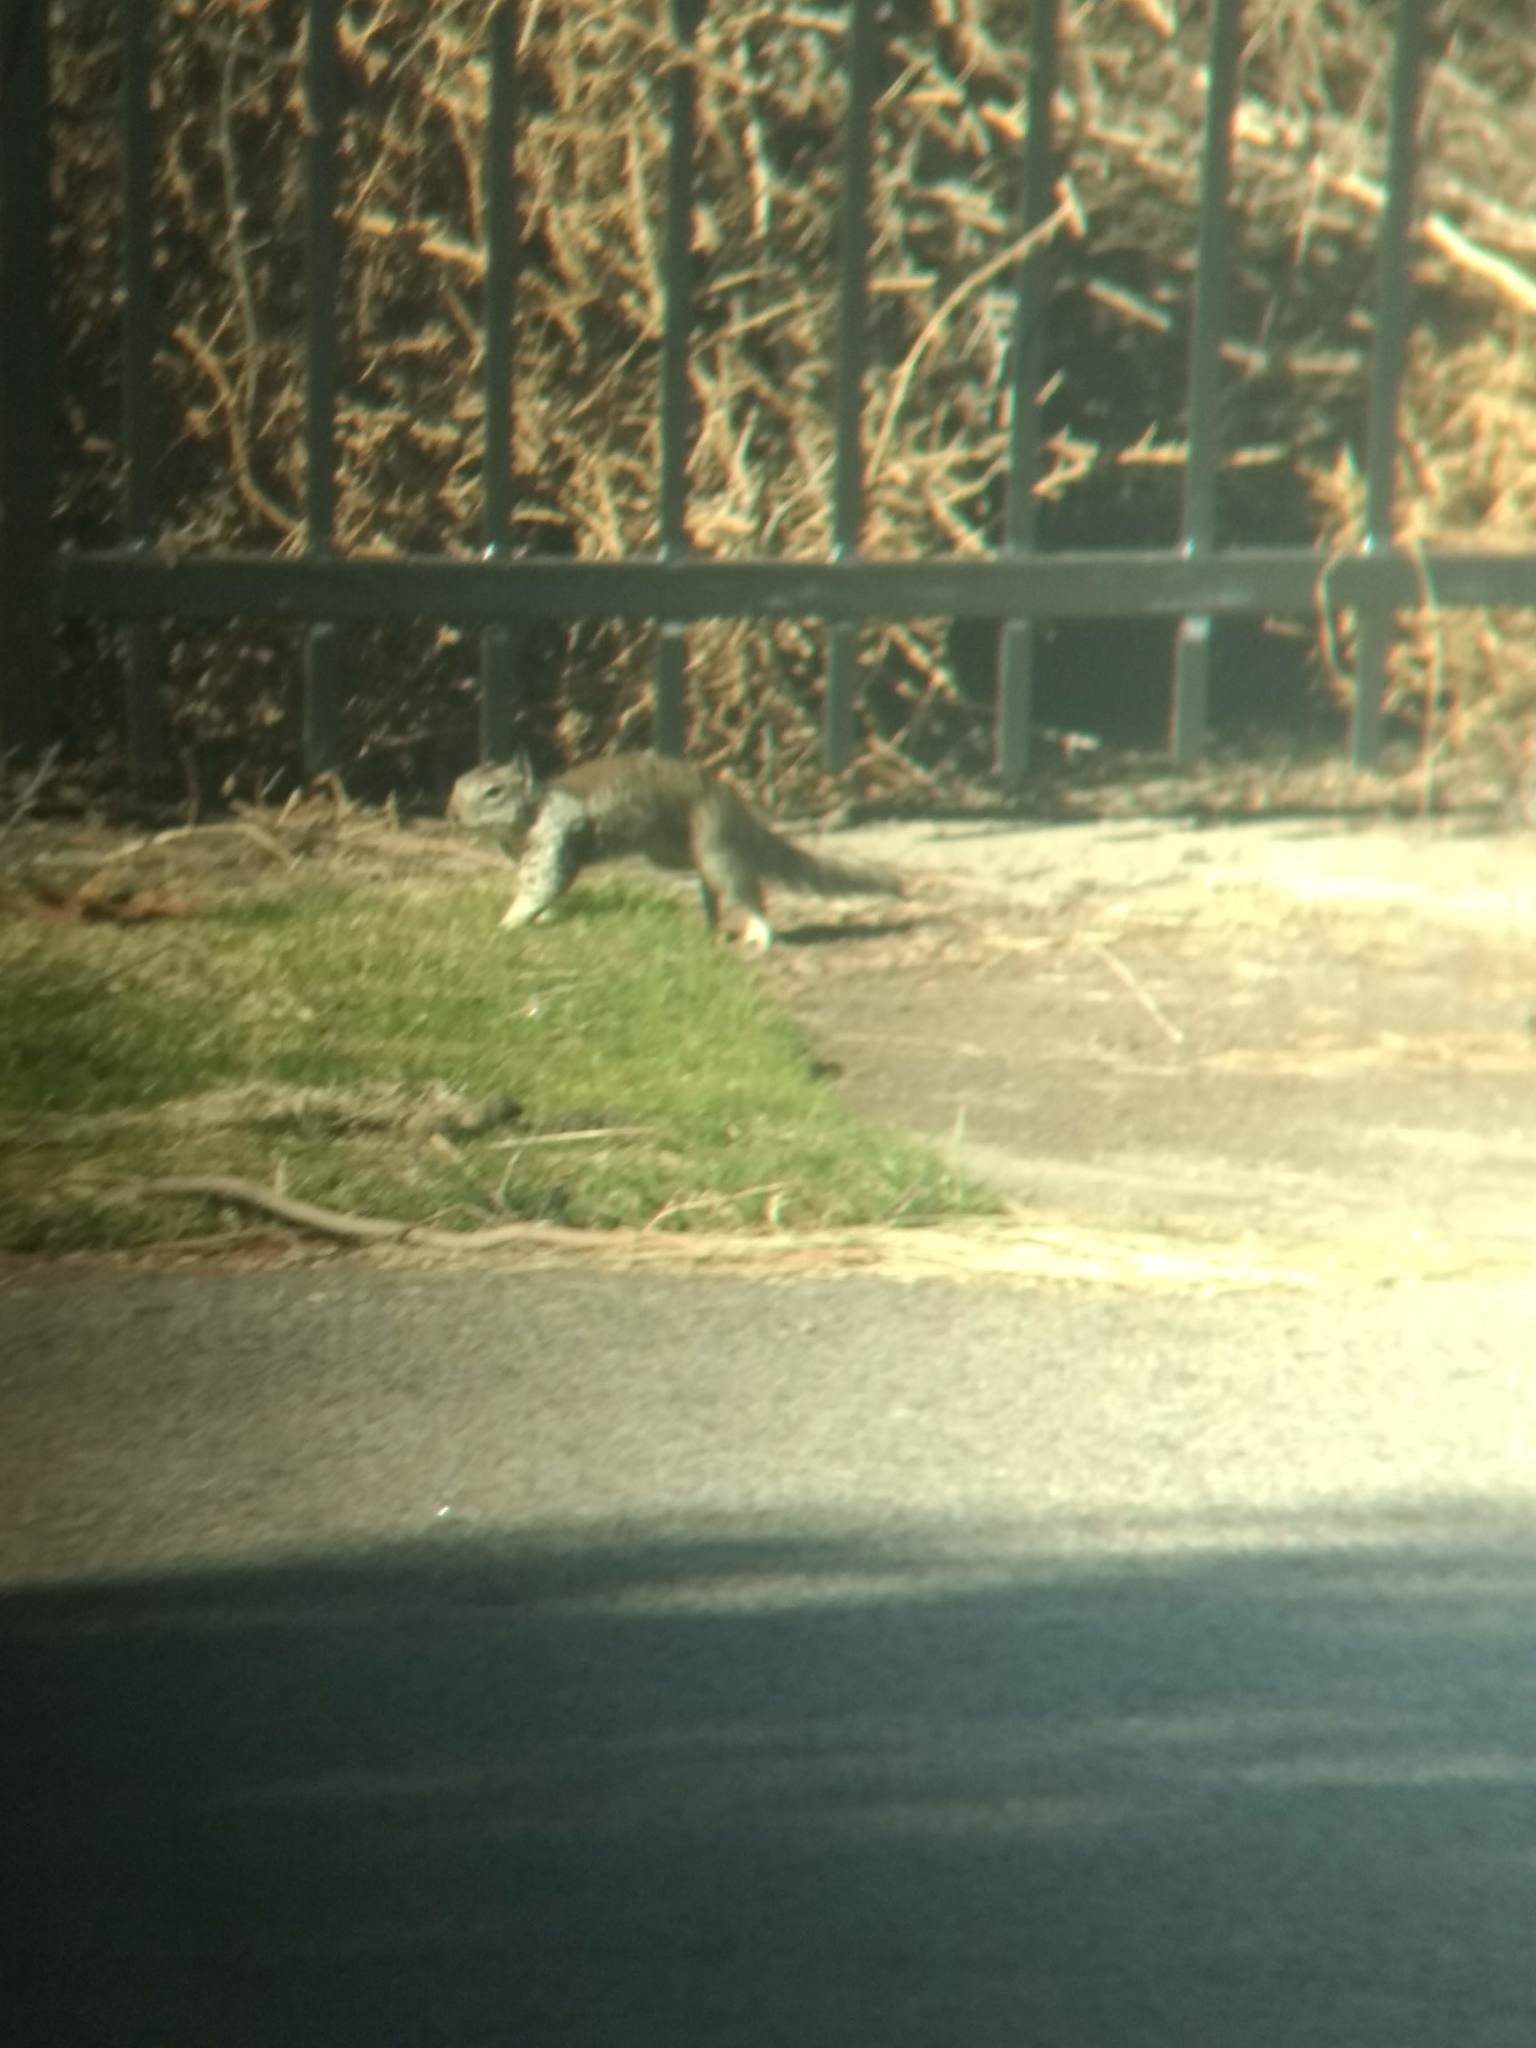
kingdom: Animalia
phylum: Chordata
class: Mammalia
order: Rodentia
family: Sciuridae
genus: Otospermophilus
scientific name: Otospermophilus beecheyi
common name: California ground squirrel
